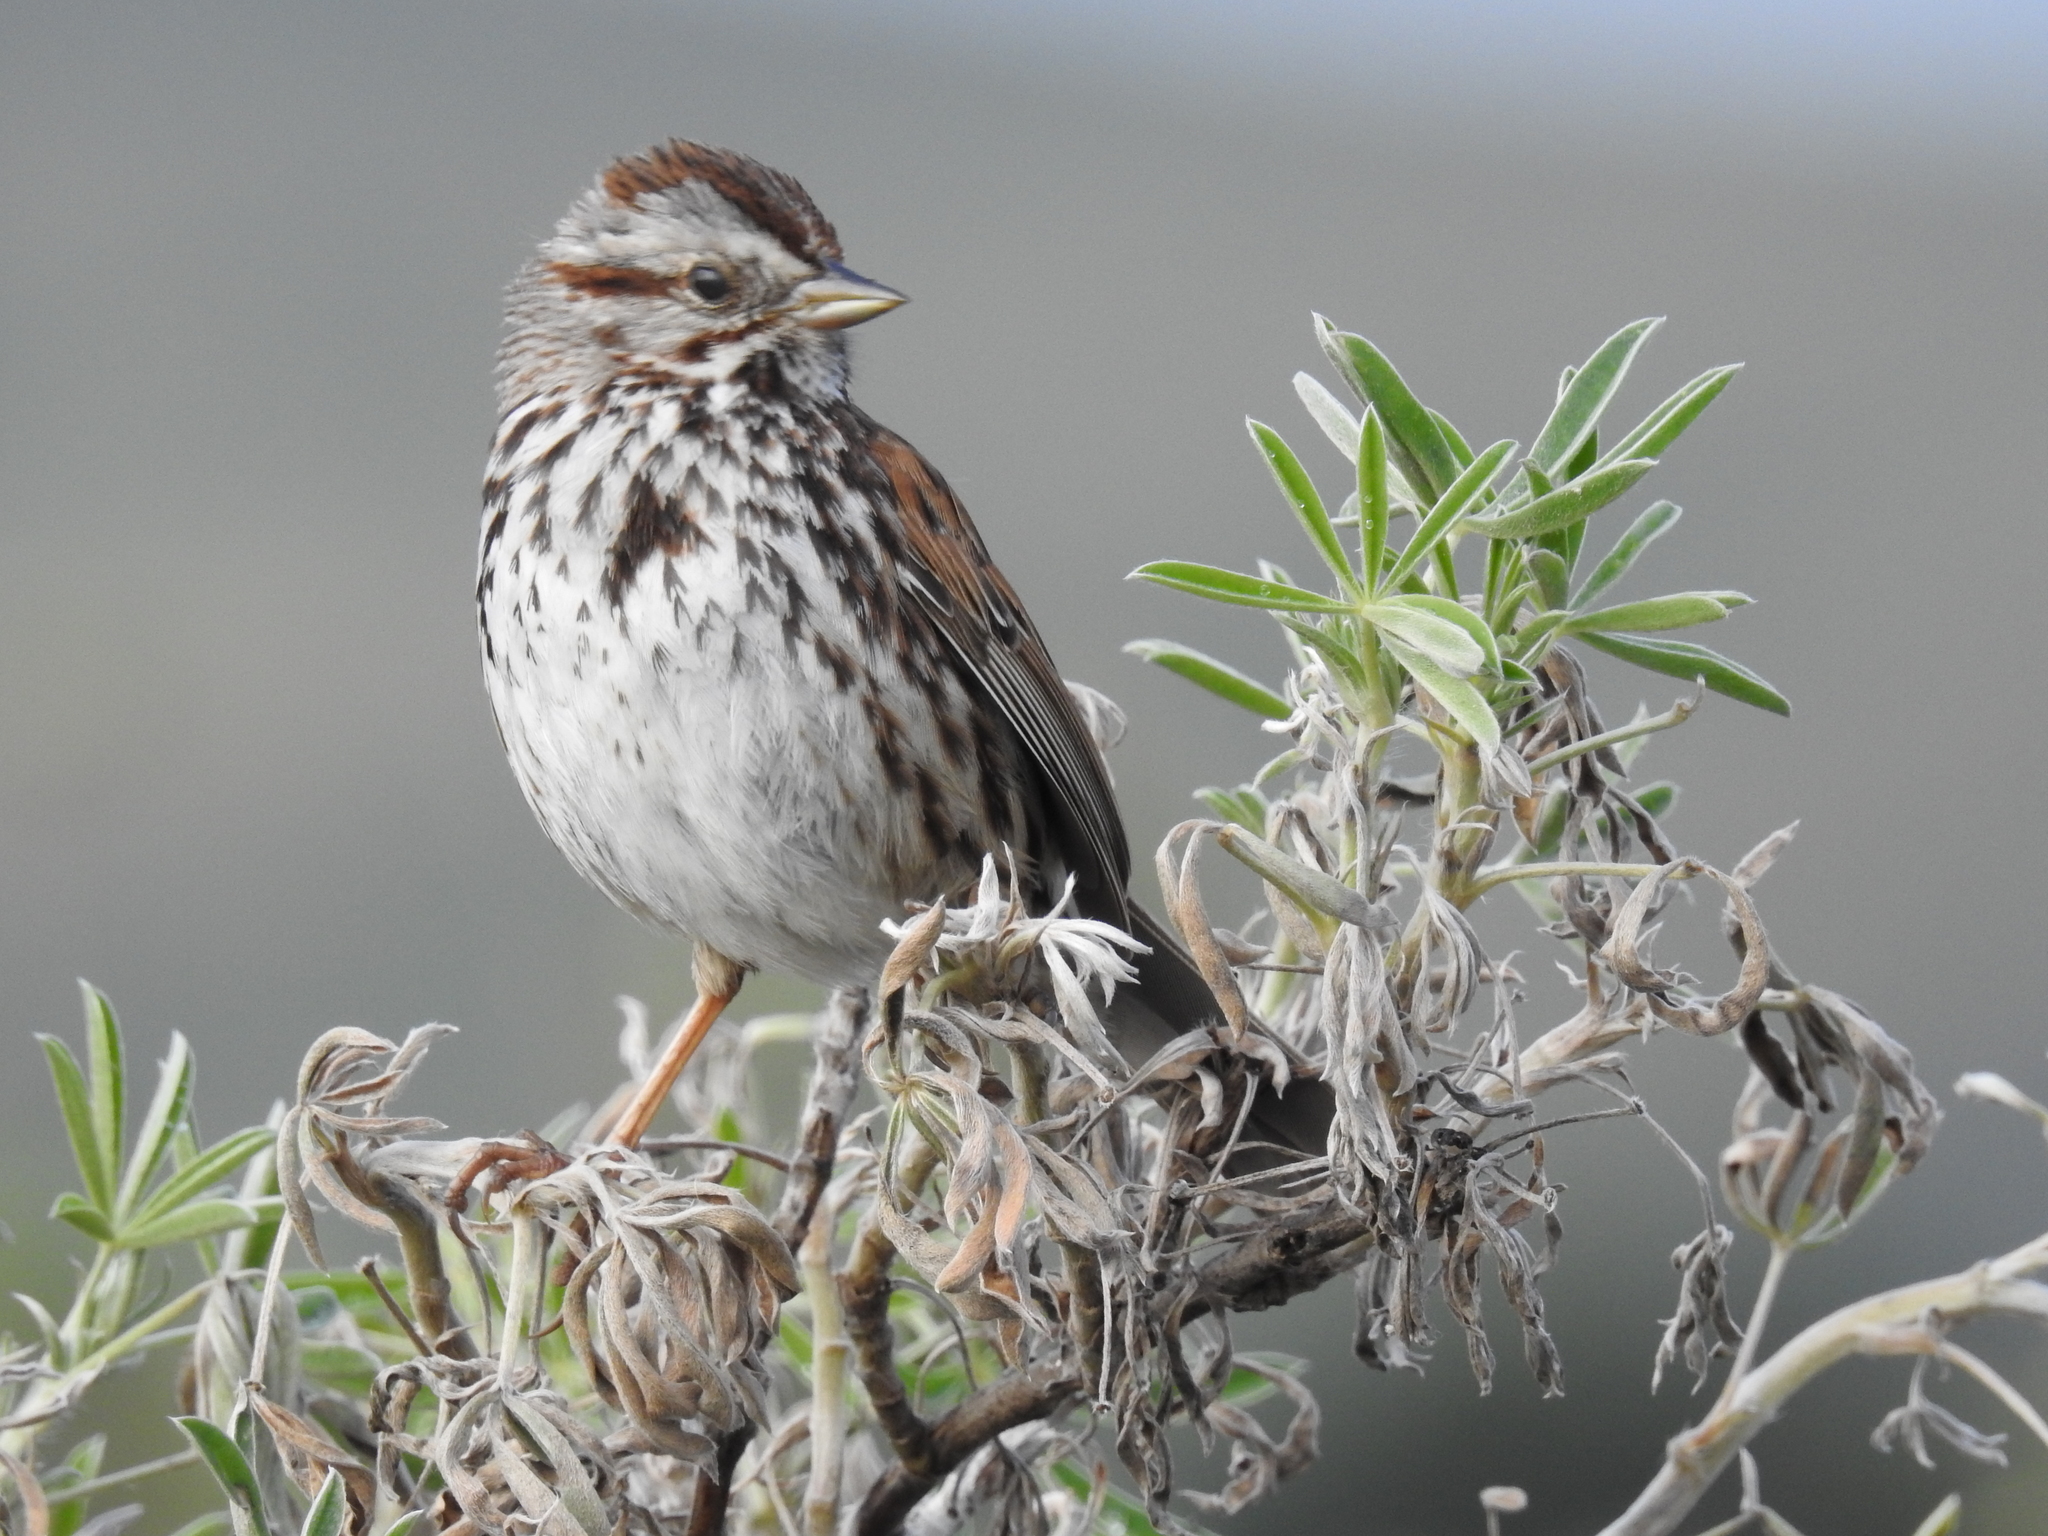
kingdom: Animalia
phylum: Chordata
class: Aves
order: Passeriformes
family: Passerellidae
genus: Melospiza
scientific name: Melospiza melodia
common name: Song sparrow
